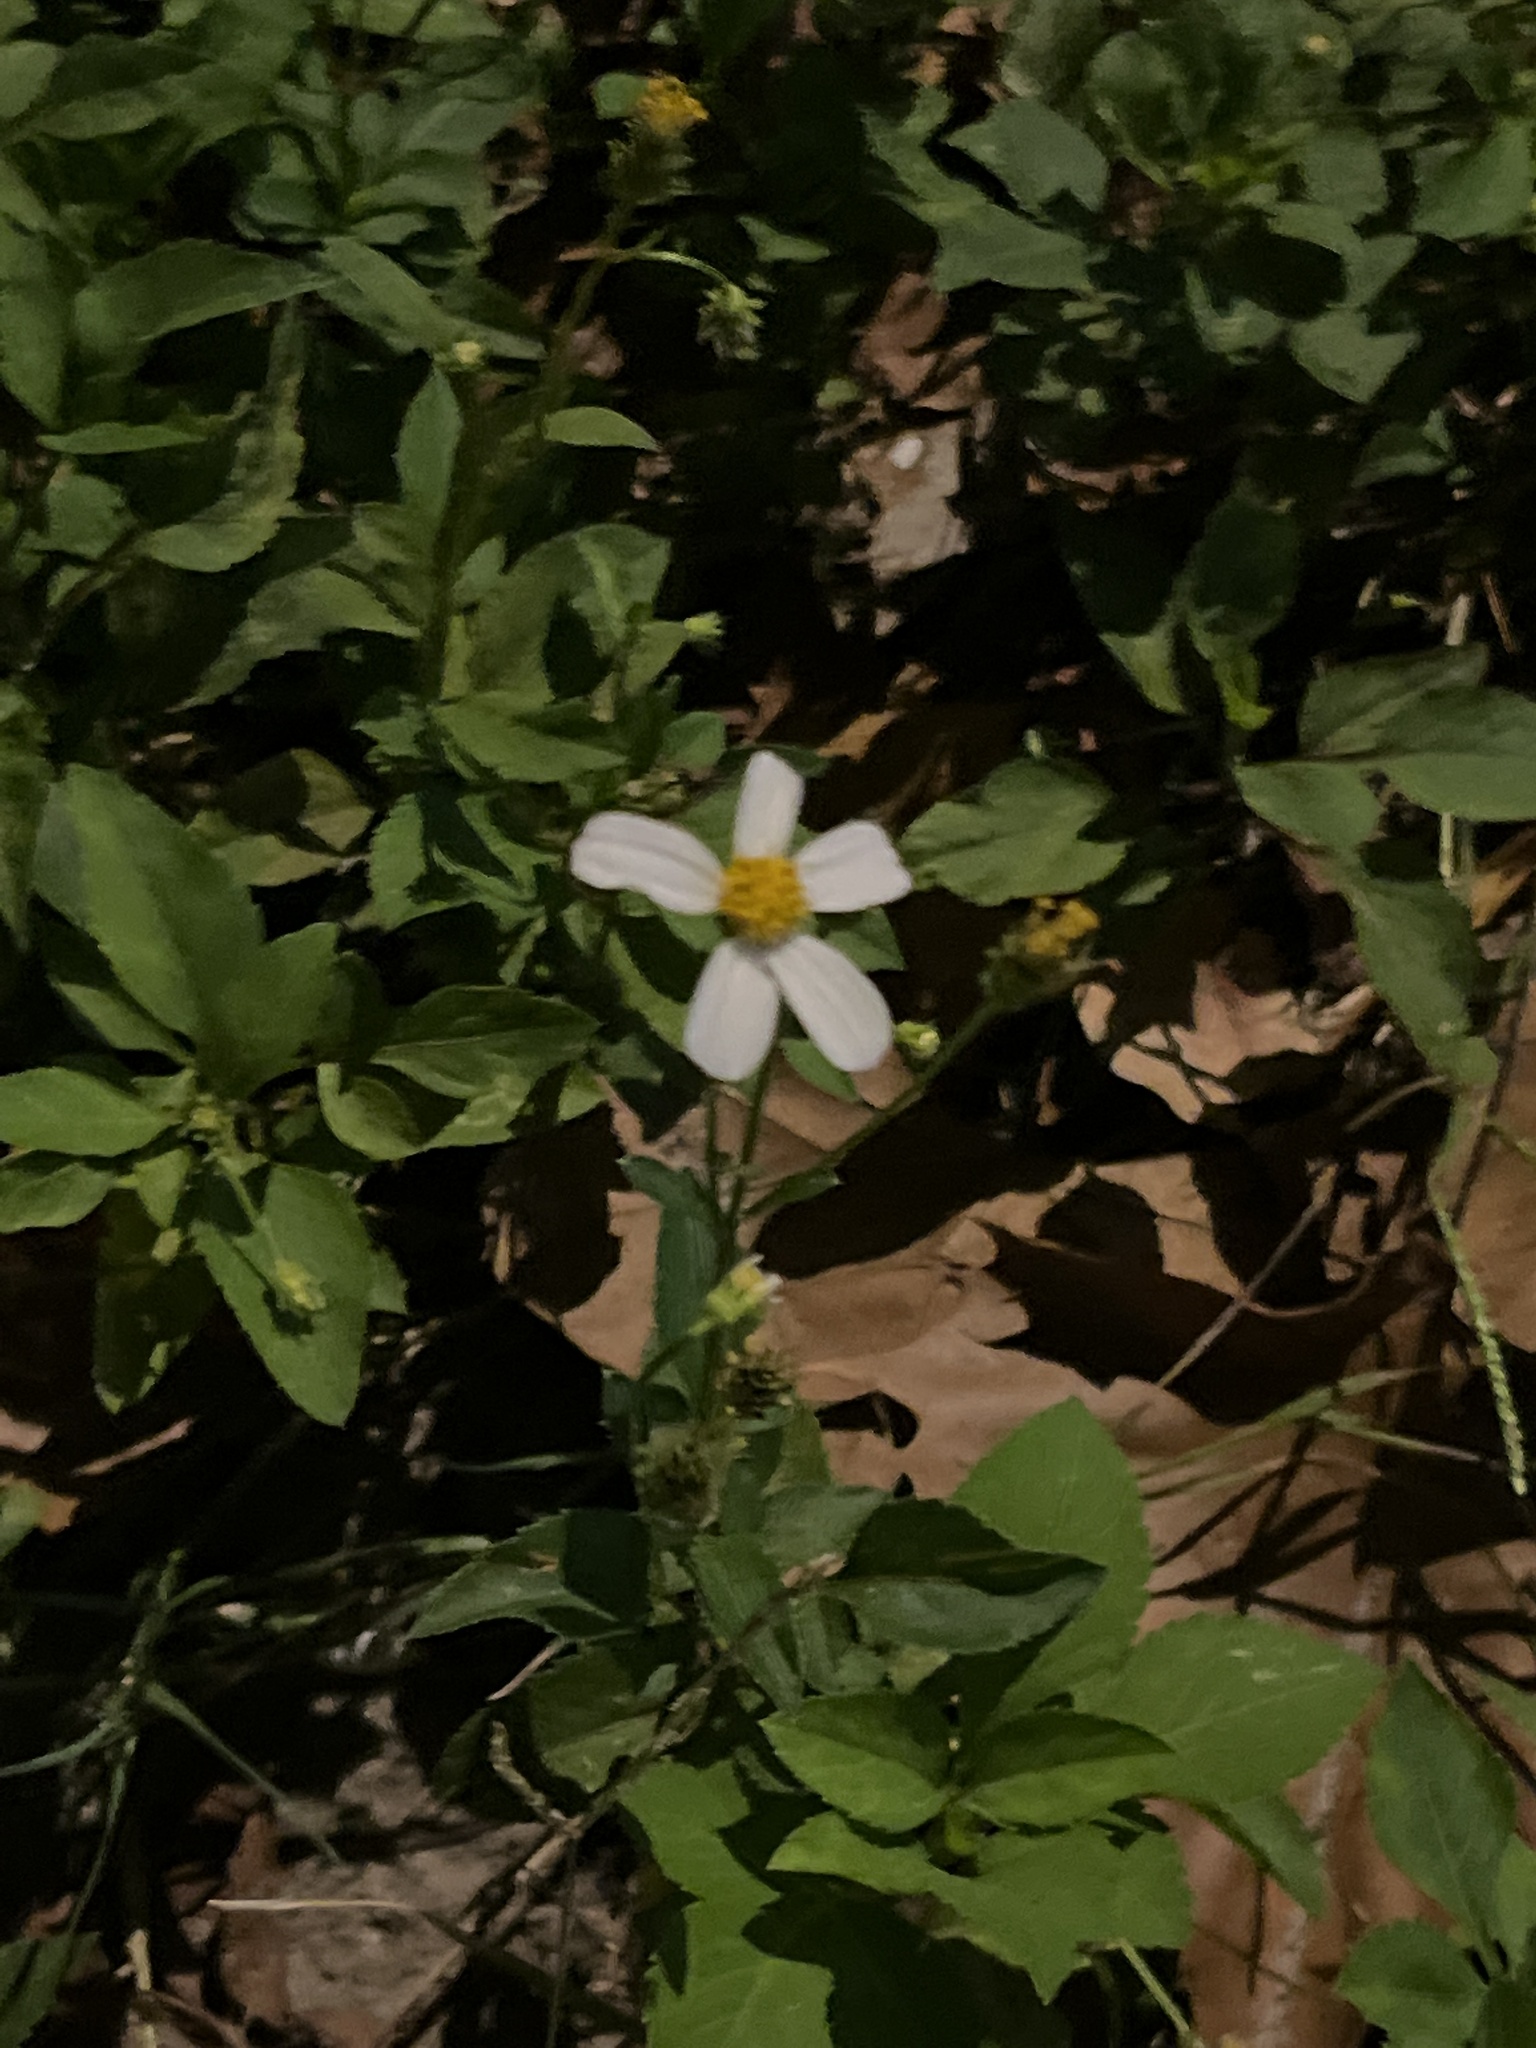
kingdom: Plantae
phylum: Tracheophyta
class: Magnoliopsida
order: Asterales
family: Asteraceae
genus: Bidens
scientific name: Bidens alba
